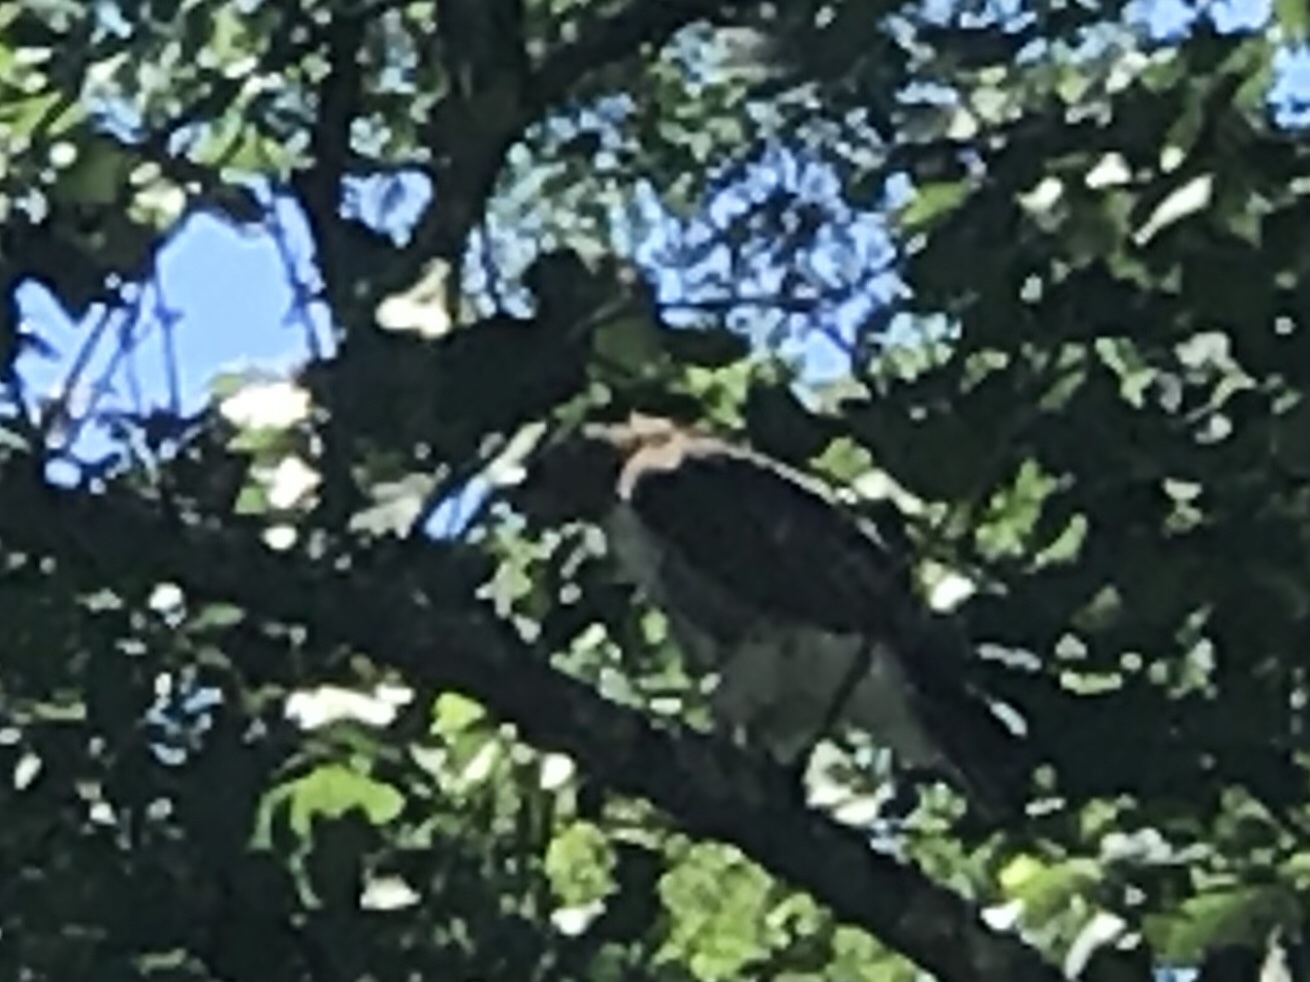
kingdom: Animalia
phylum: Chordata
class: Aves
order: Accipitriformes
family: Accipitridae
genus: Buteo
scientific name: Buteo jamaicensis
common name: Red-tailed hawk
